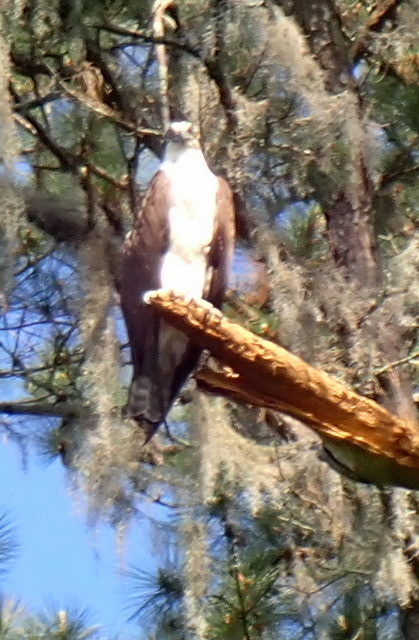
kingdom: Animalia
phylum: Chordata
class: Aves
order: Accipitriformes
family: Pandionidae
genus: Pandion
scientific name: Pandion haliaetus
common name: Osprey
